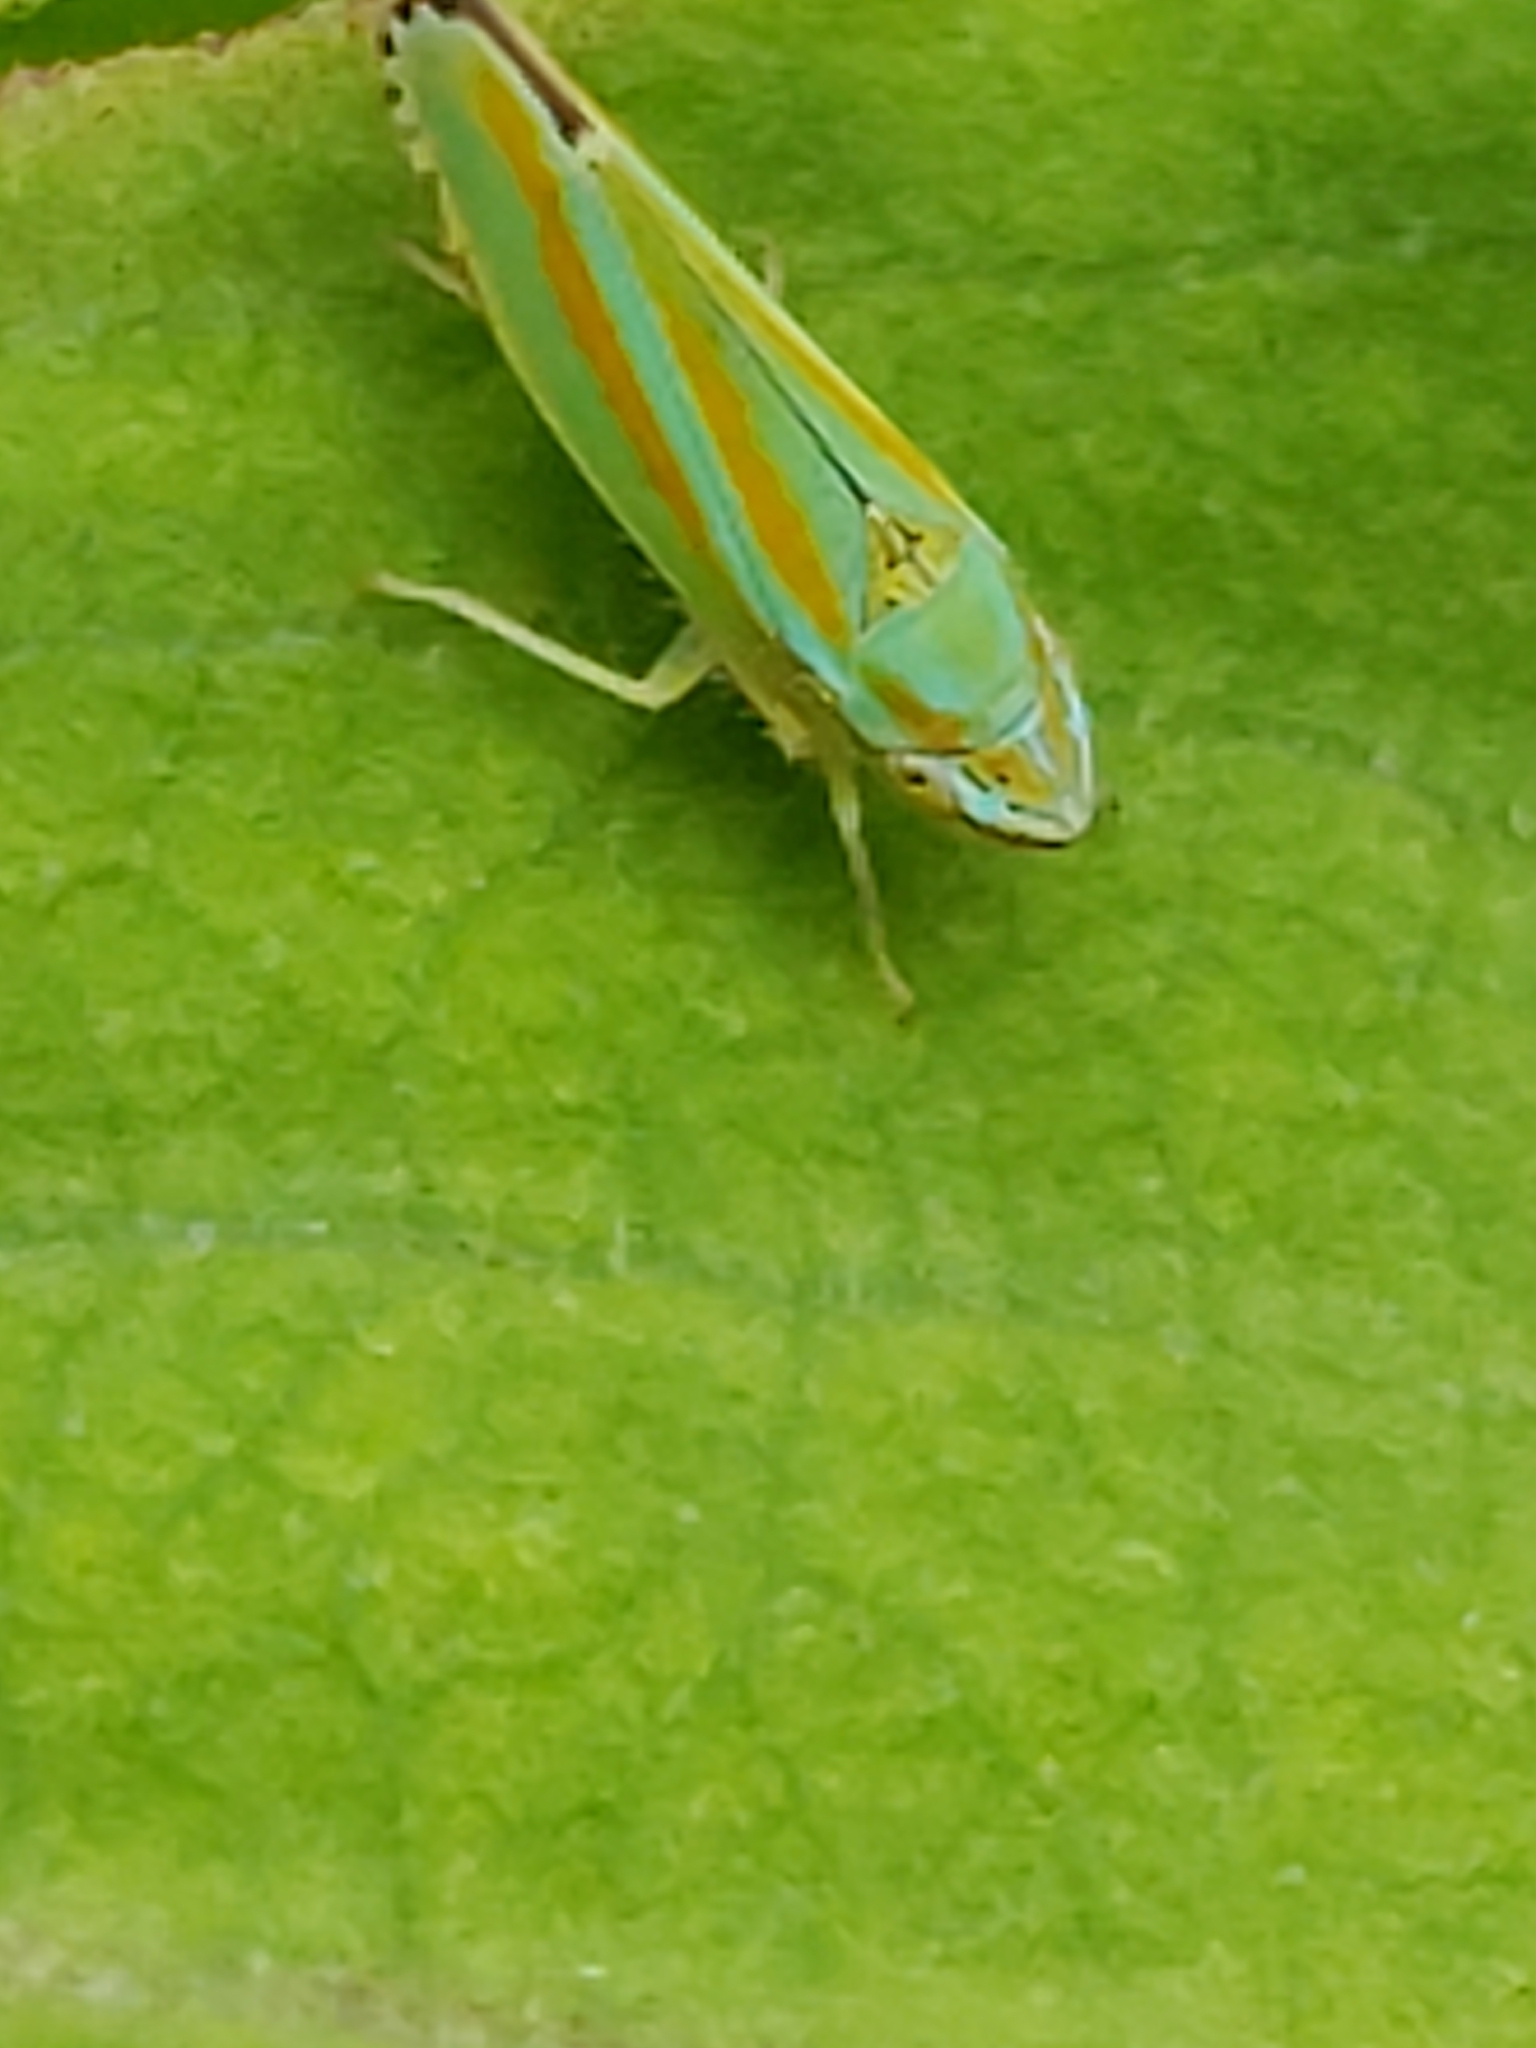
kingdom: Animalia
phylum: Arthropoda
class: Insecta
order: Hemiptera
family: Cicadellidae
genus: Graphocephala
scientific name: Graphocephala versuta
